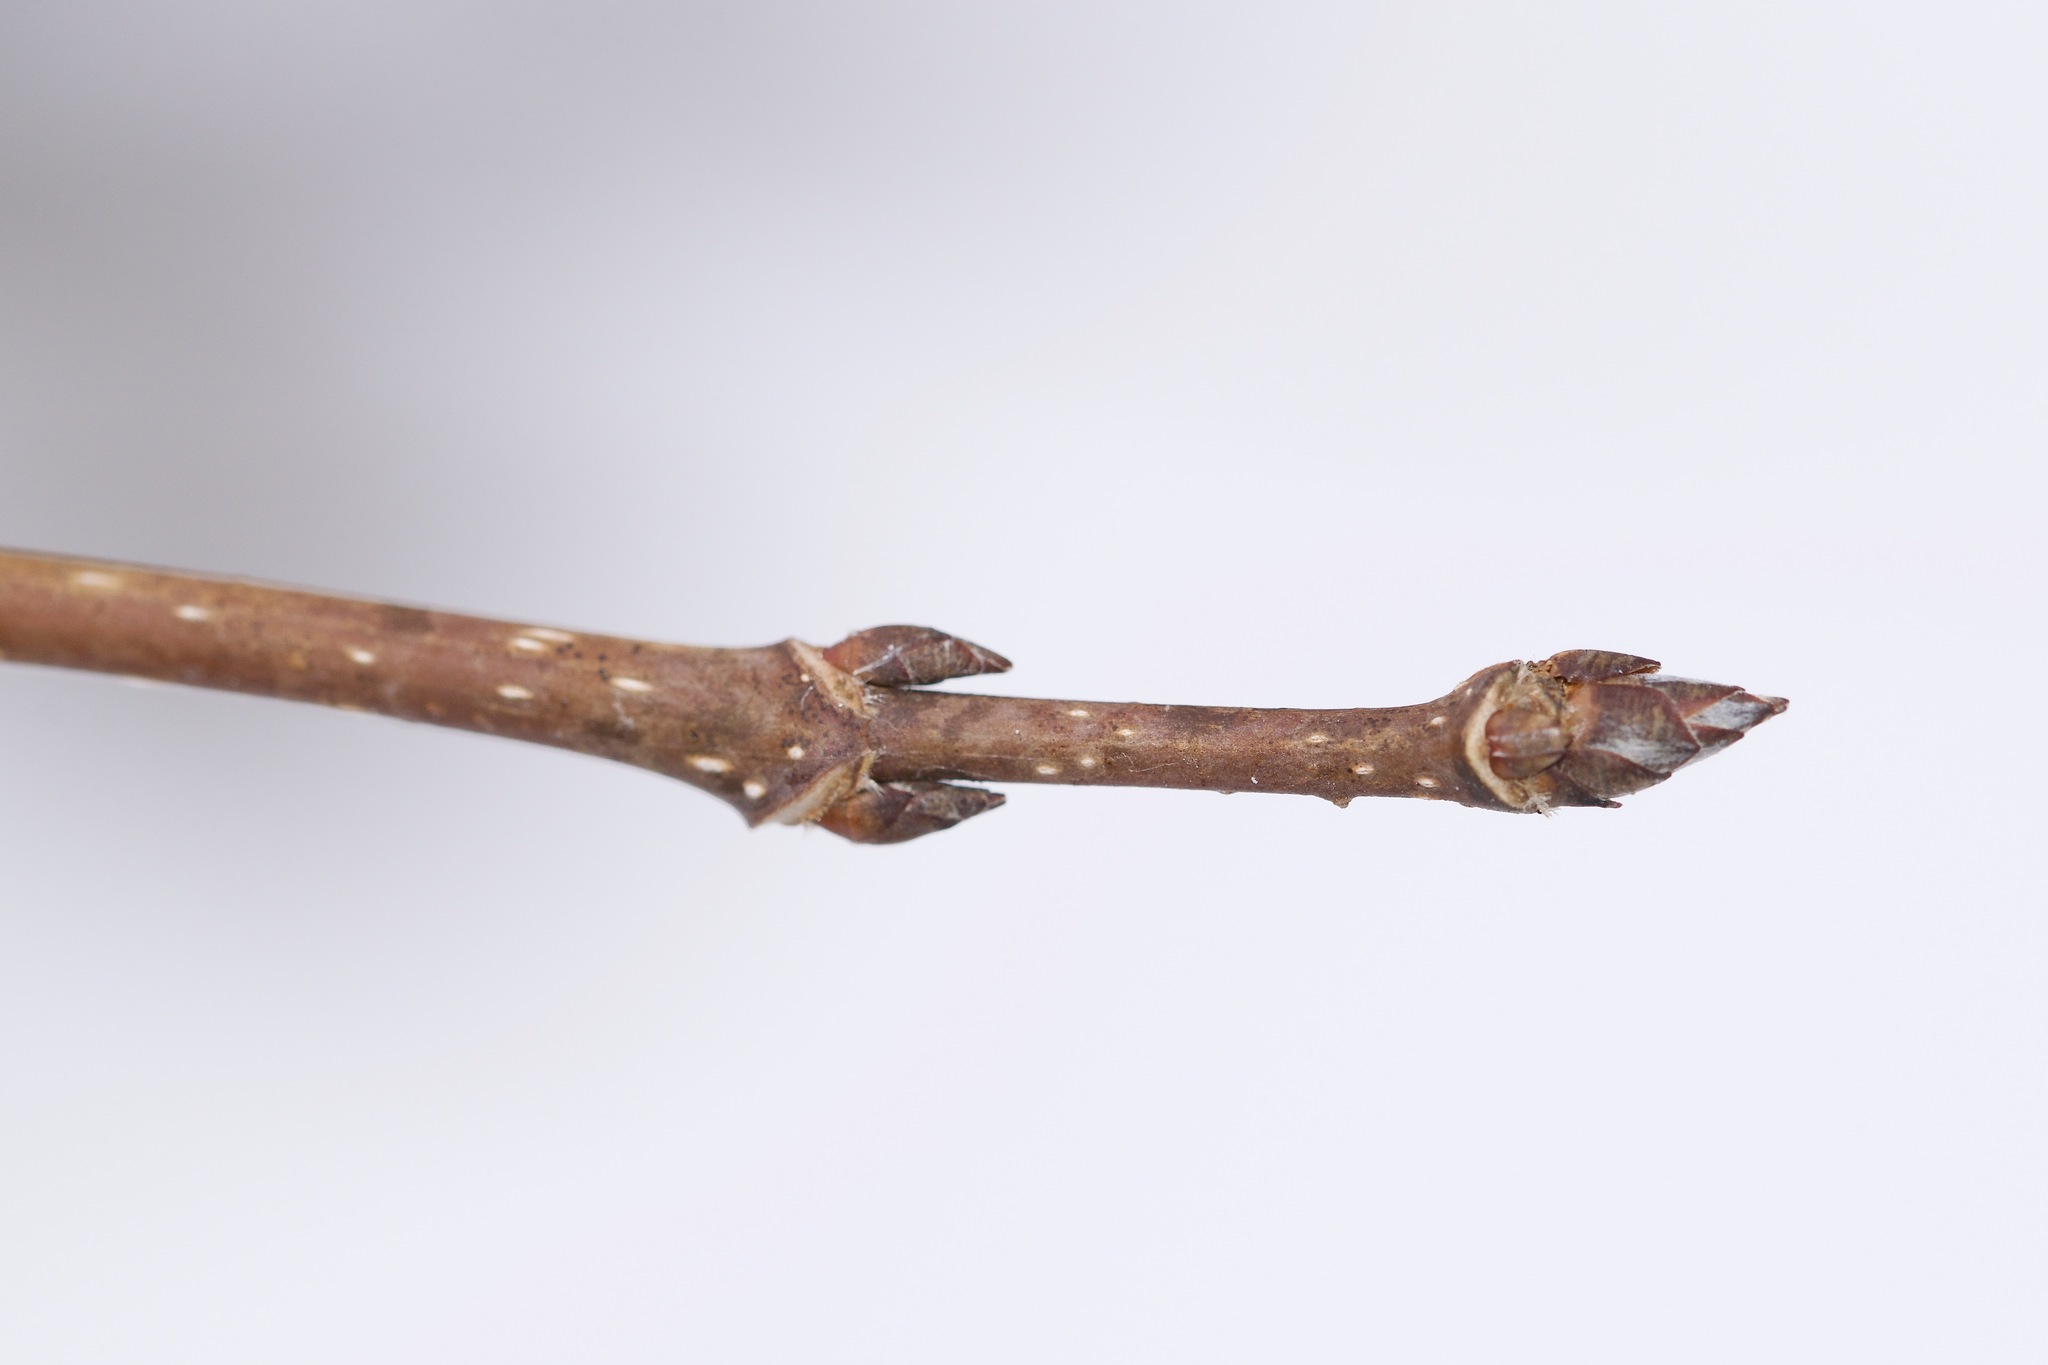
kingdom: Plantae
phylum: Tracheophyta
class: Magnoliopsida
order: Sapindales
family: Sapindaceae
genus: Acer
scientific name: Acer saccharum
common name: Sugar maple
